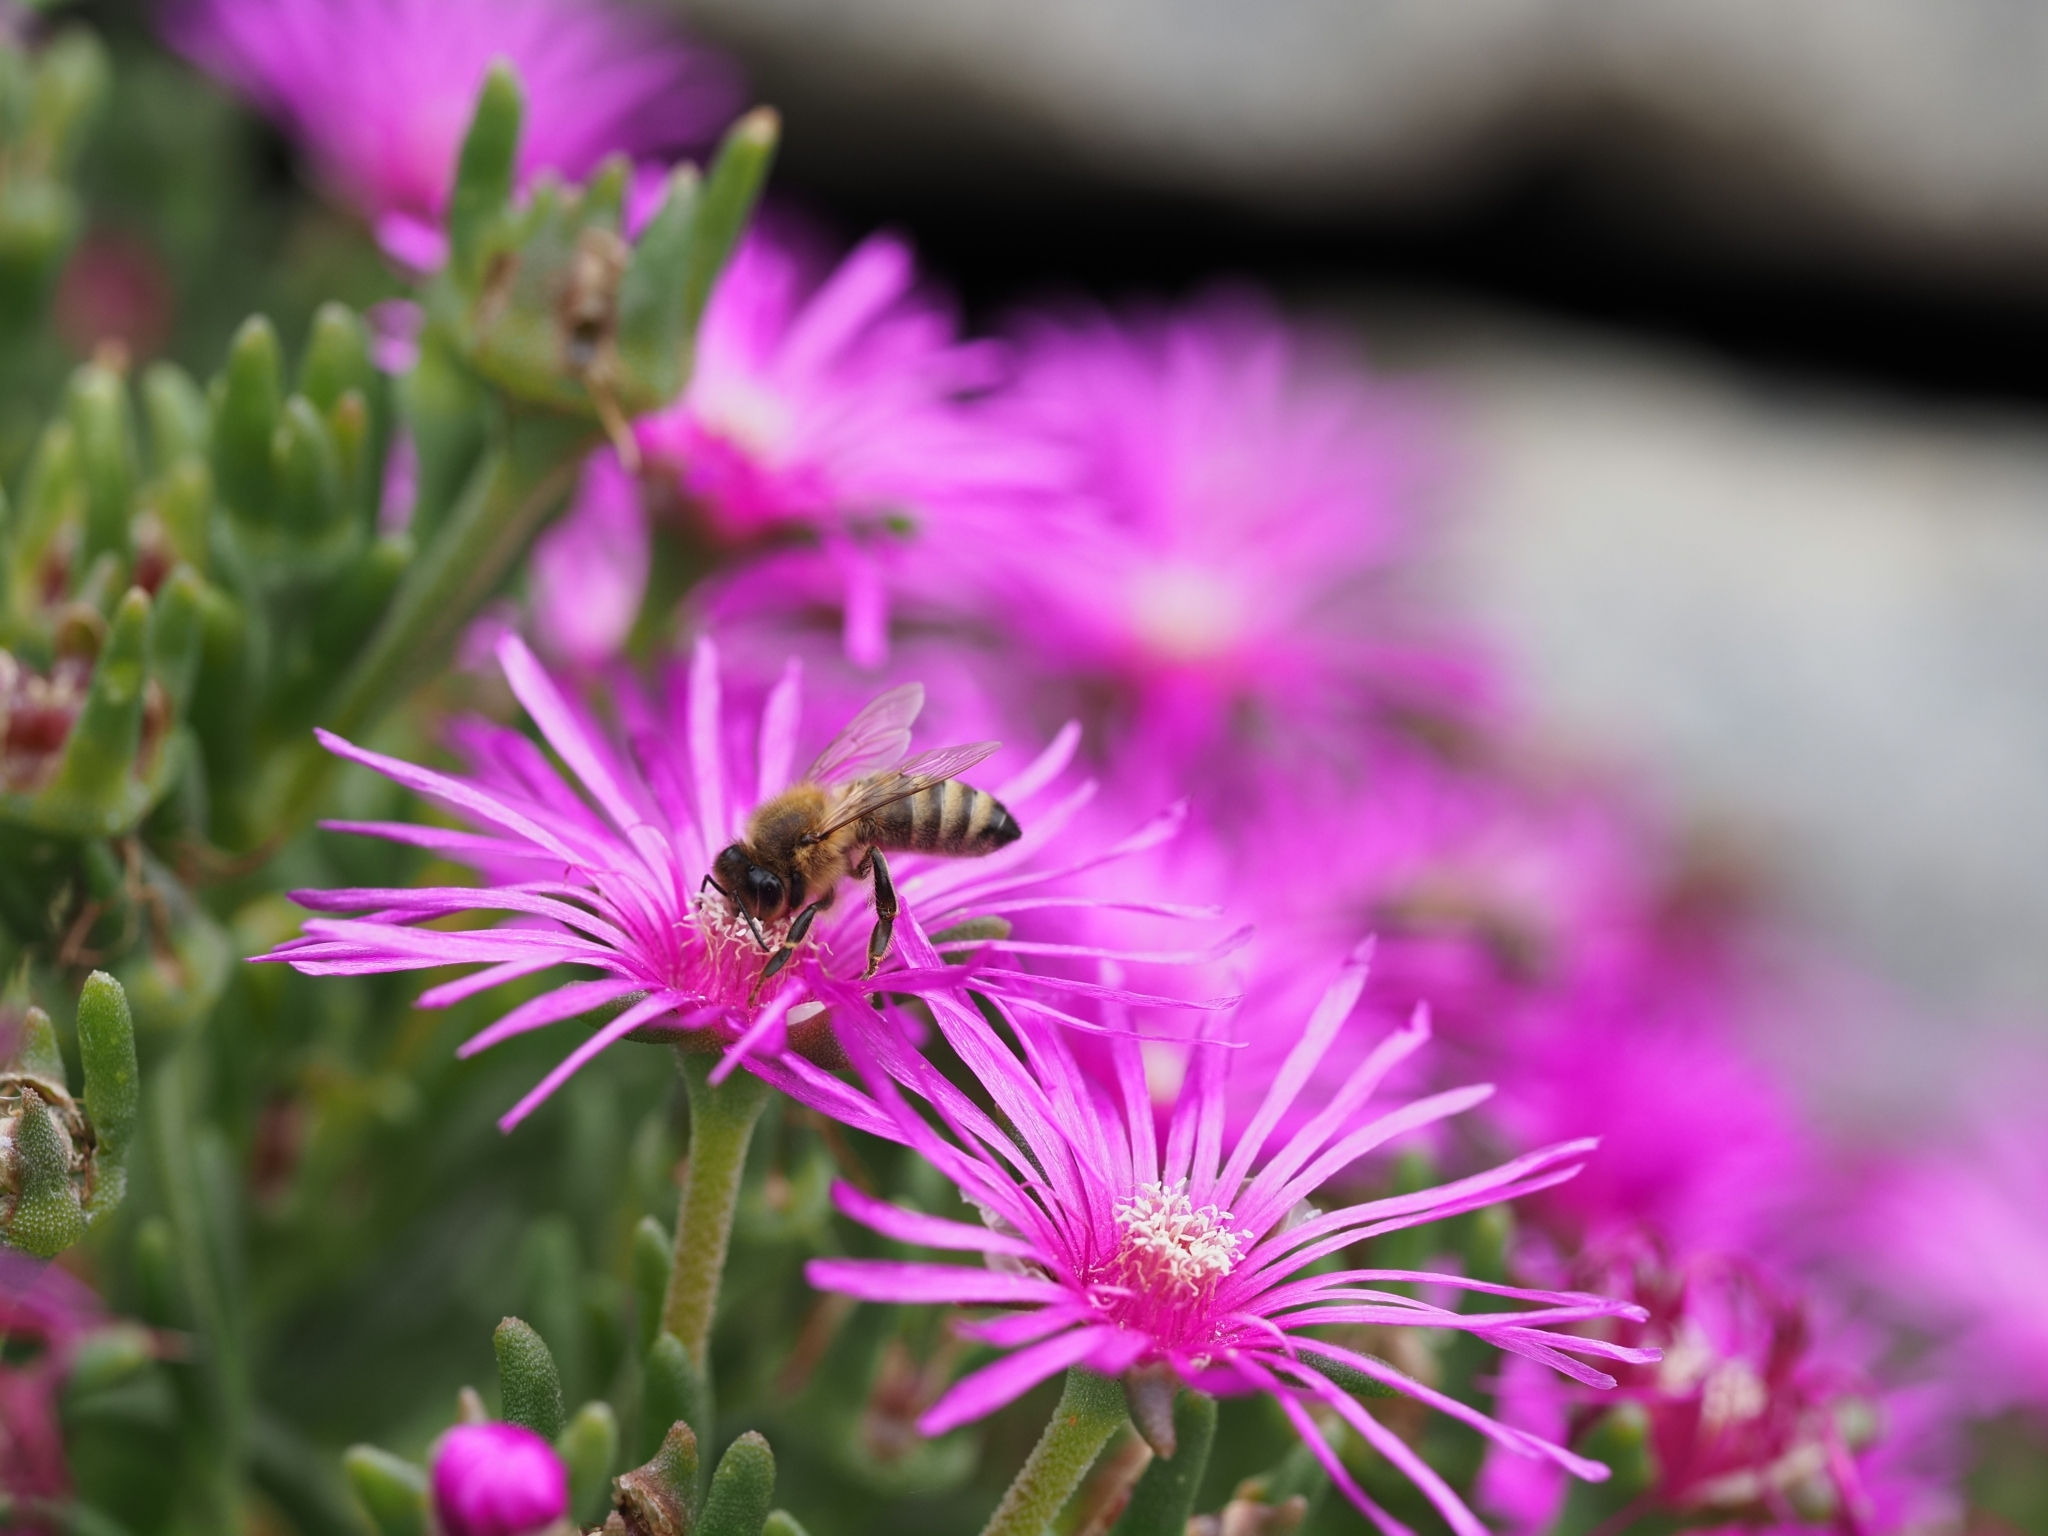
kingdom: Animalia
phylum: Arthropoda
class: Insecta
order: Hymenoptera
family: Apidae
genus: Apis
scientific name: Apis mellifera
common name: Honey bee
